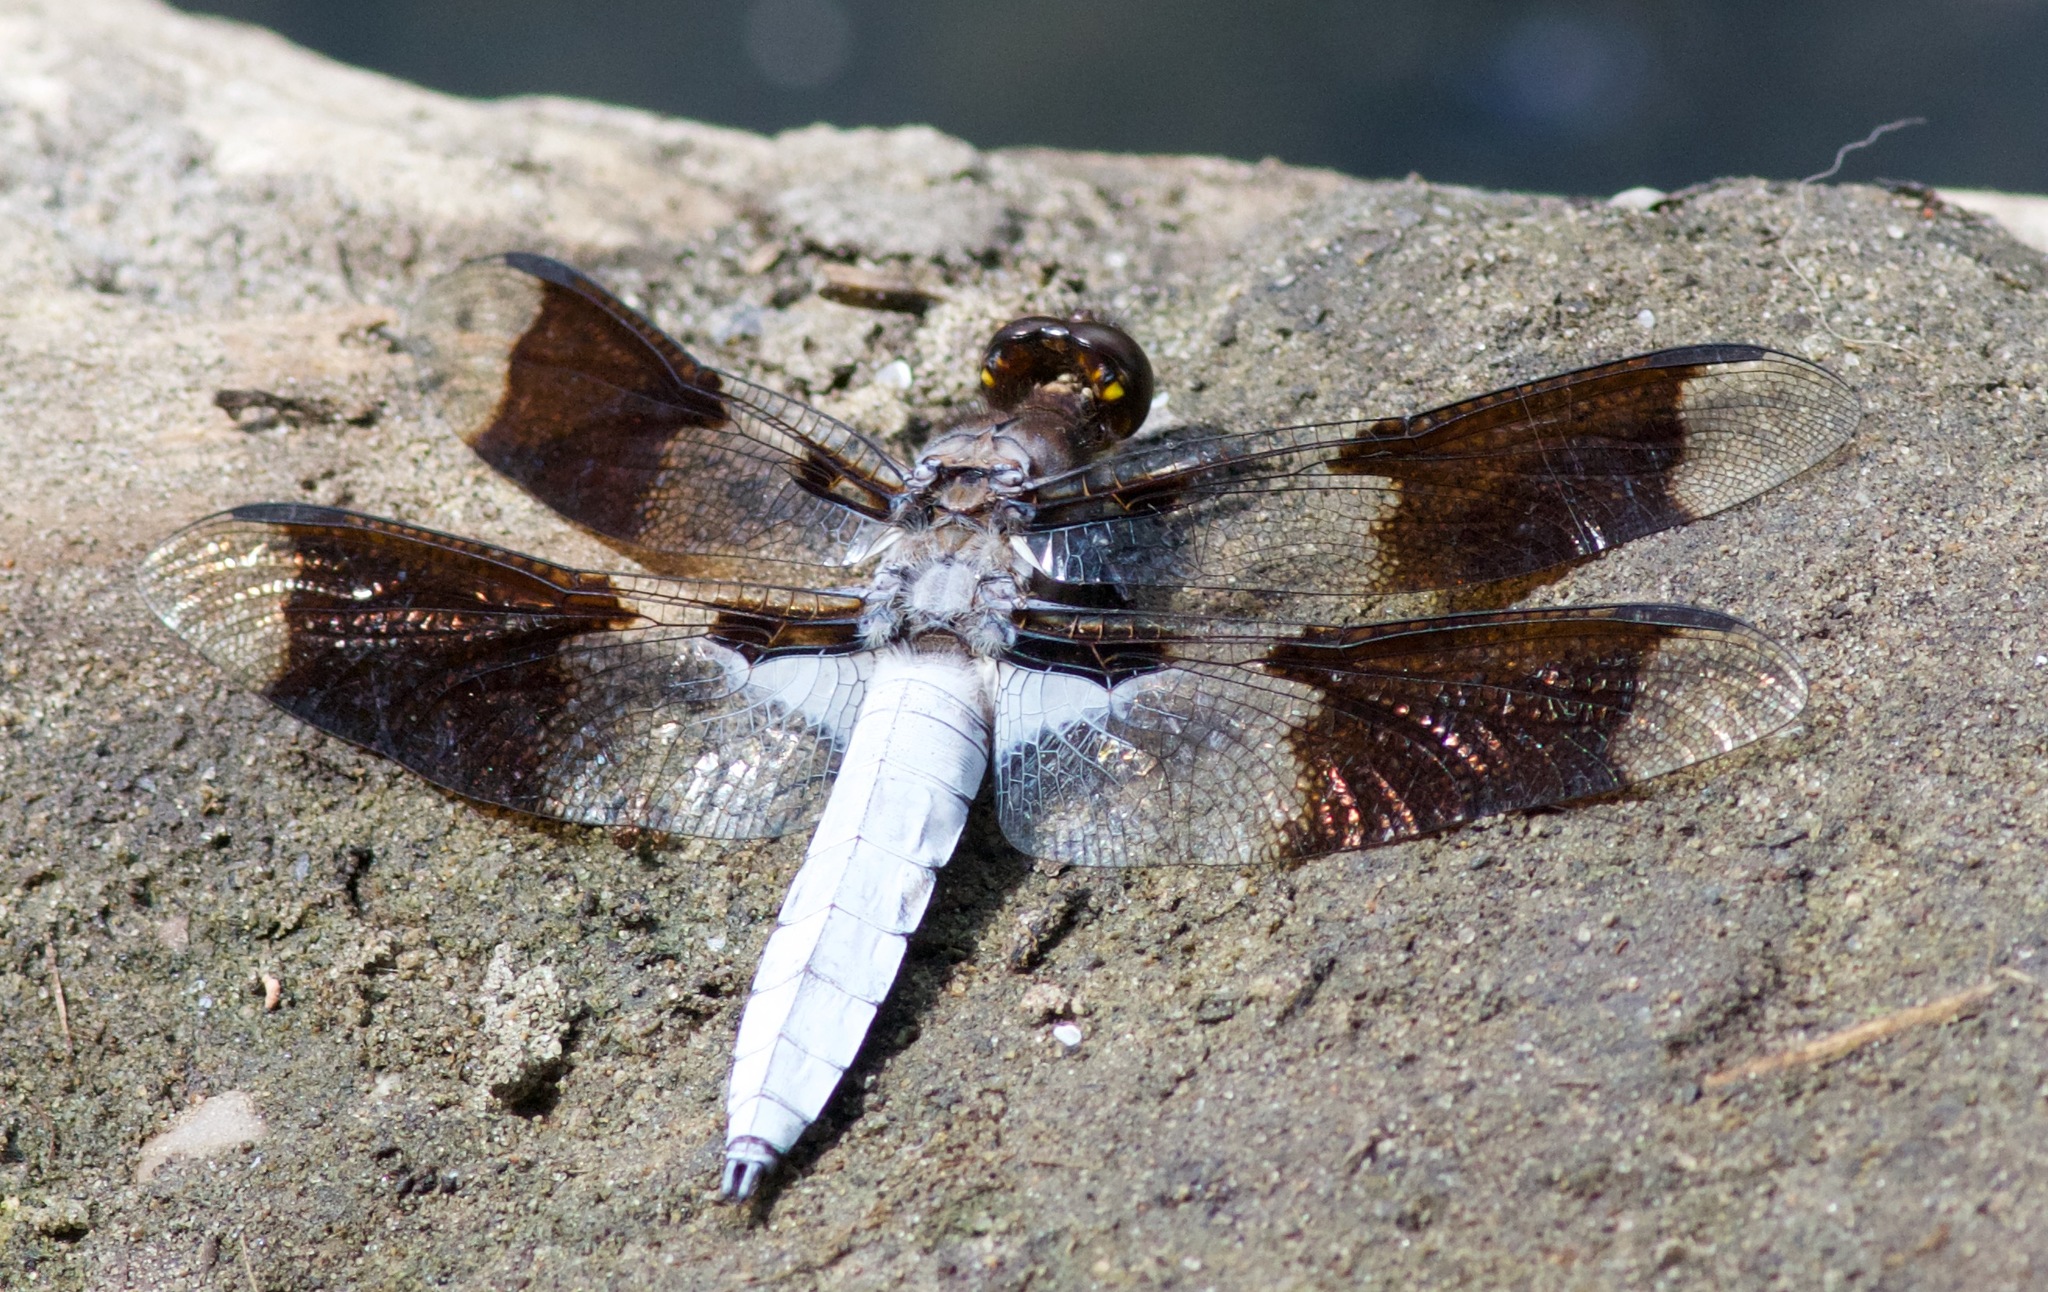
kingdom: Animalia
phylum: Arthropoda
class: Insecta
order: Odonata
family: Libellulidae
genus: Plathemis
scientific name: Plathemis lydia
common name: Common whitetail
